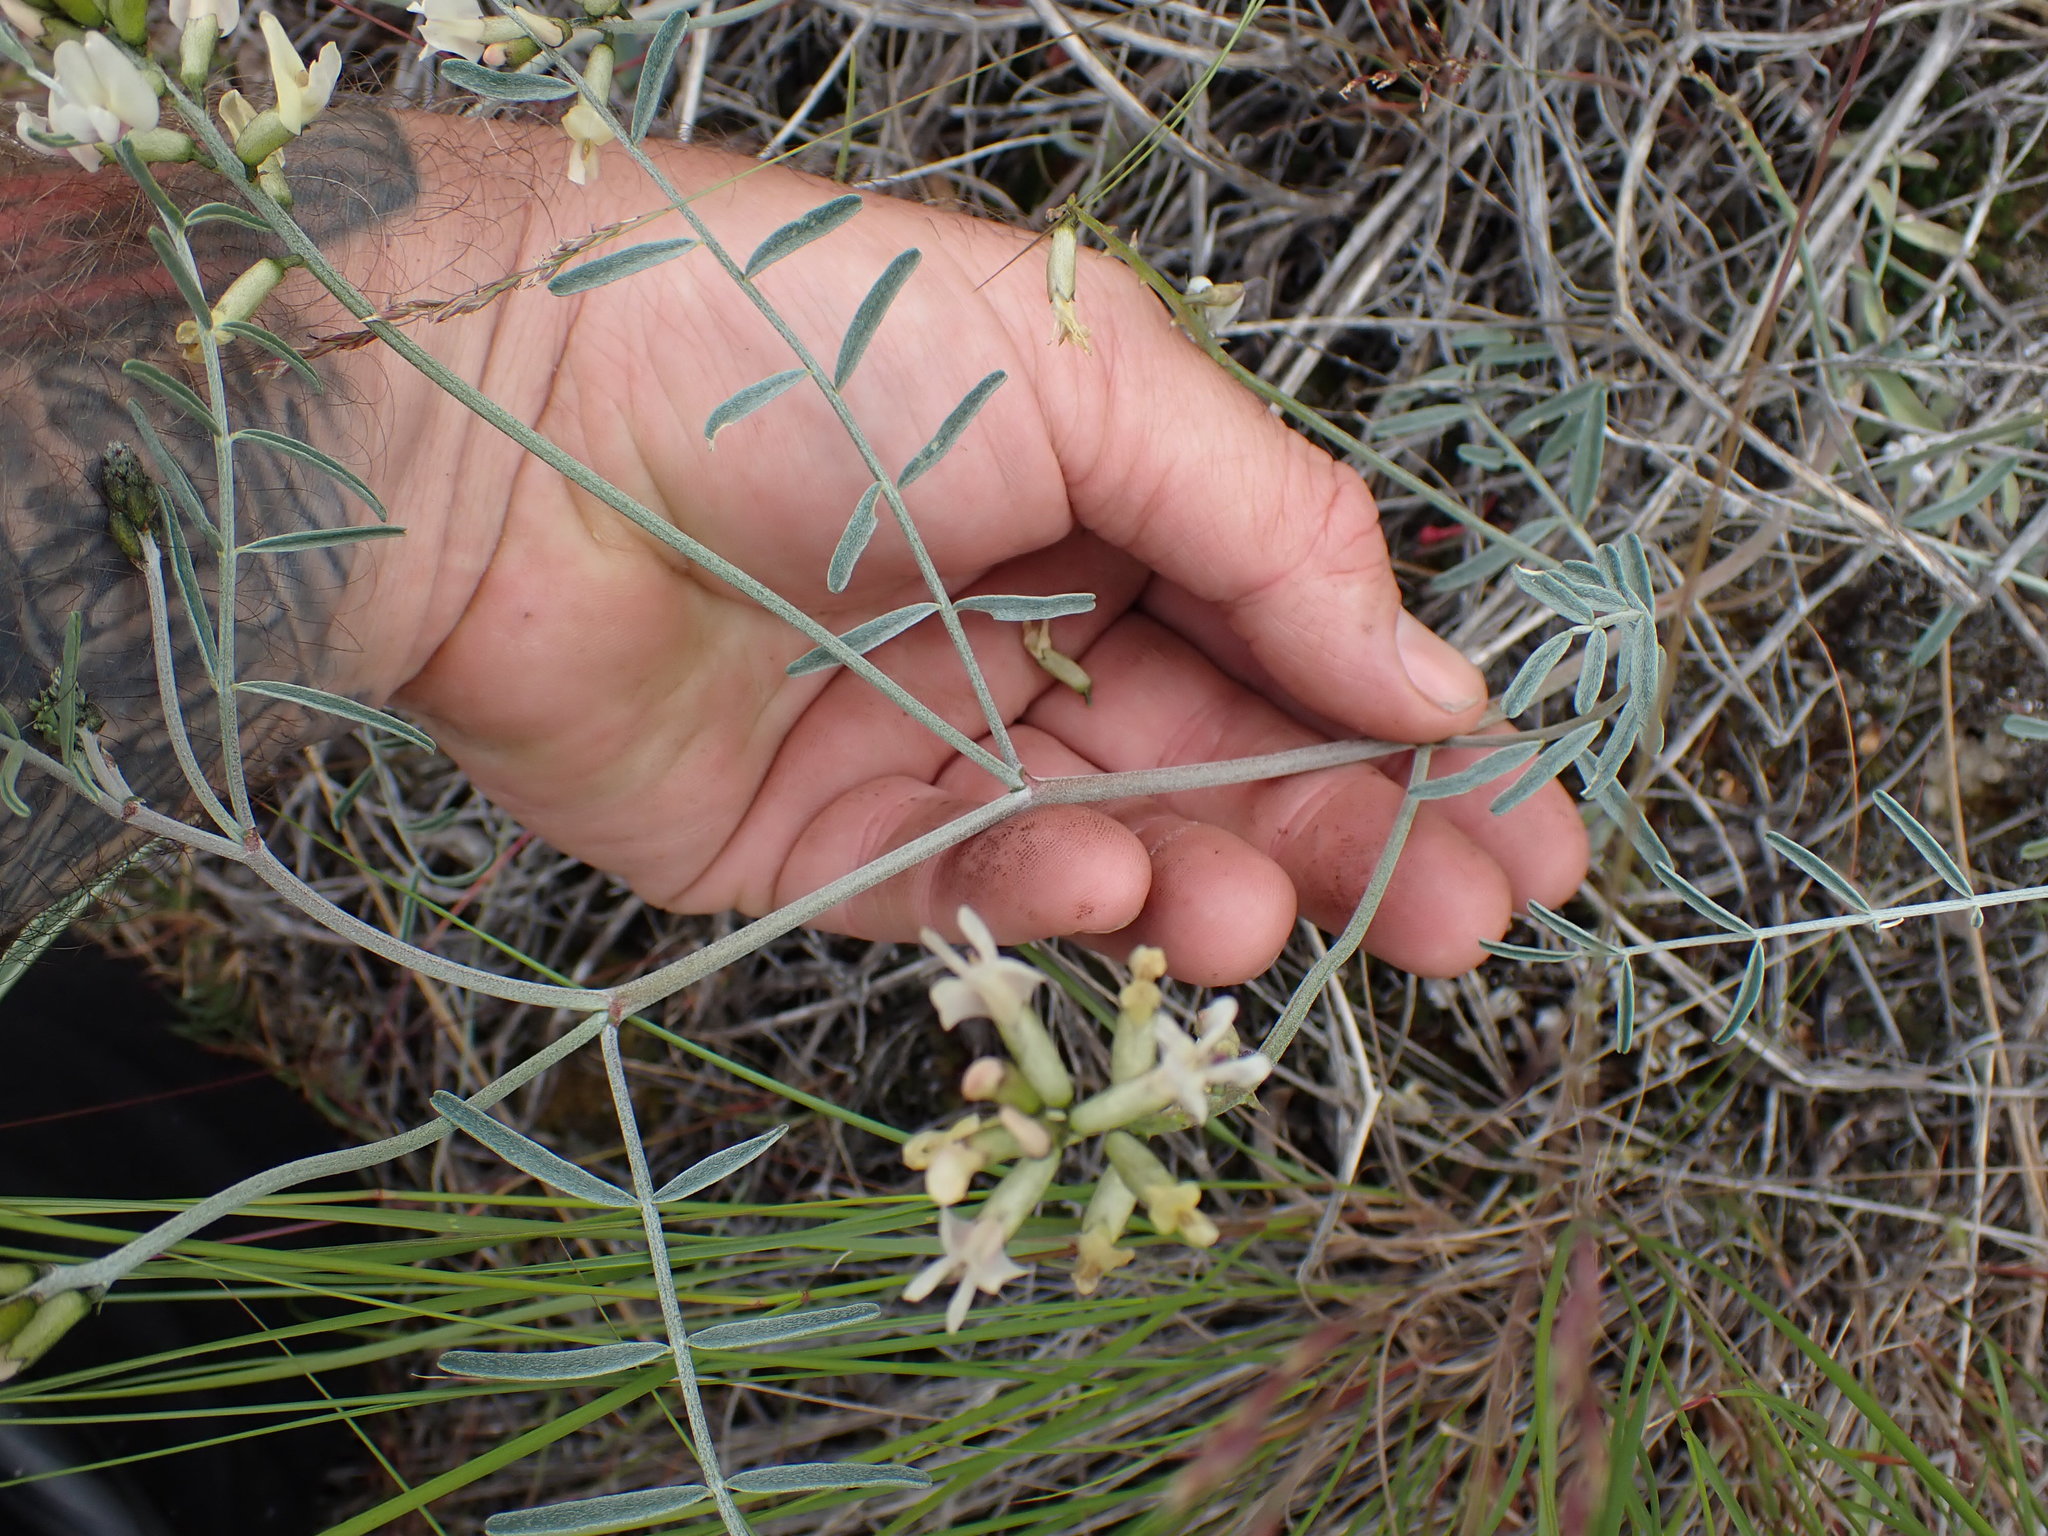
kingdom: Plantae
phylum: Tracheophyta
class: Magnoliopsida
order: Fabales
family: Fabaceae
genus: Astragalus
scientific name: Astragalus sclerocarpus
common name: The dalles milk-vetch
